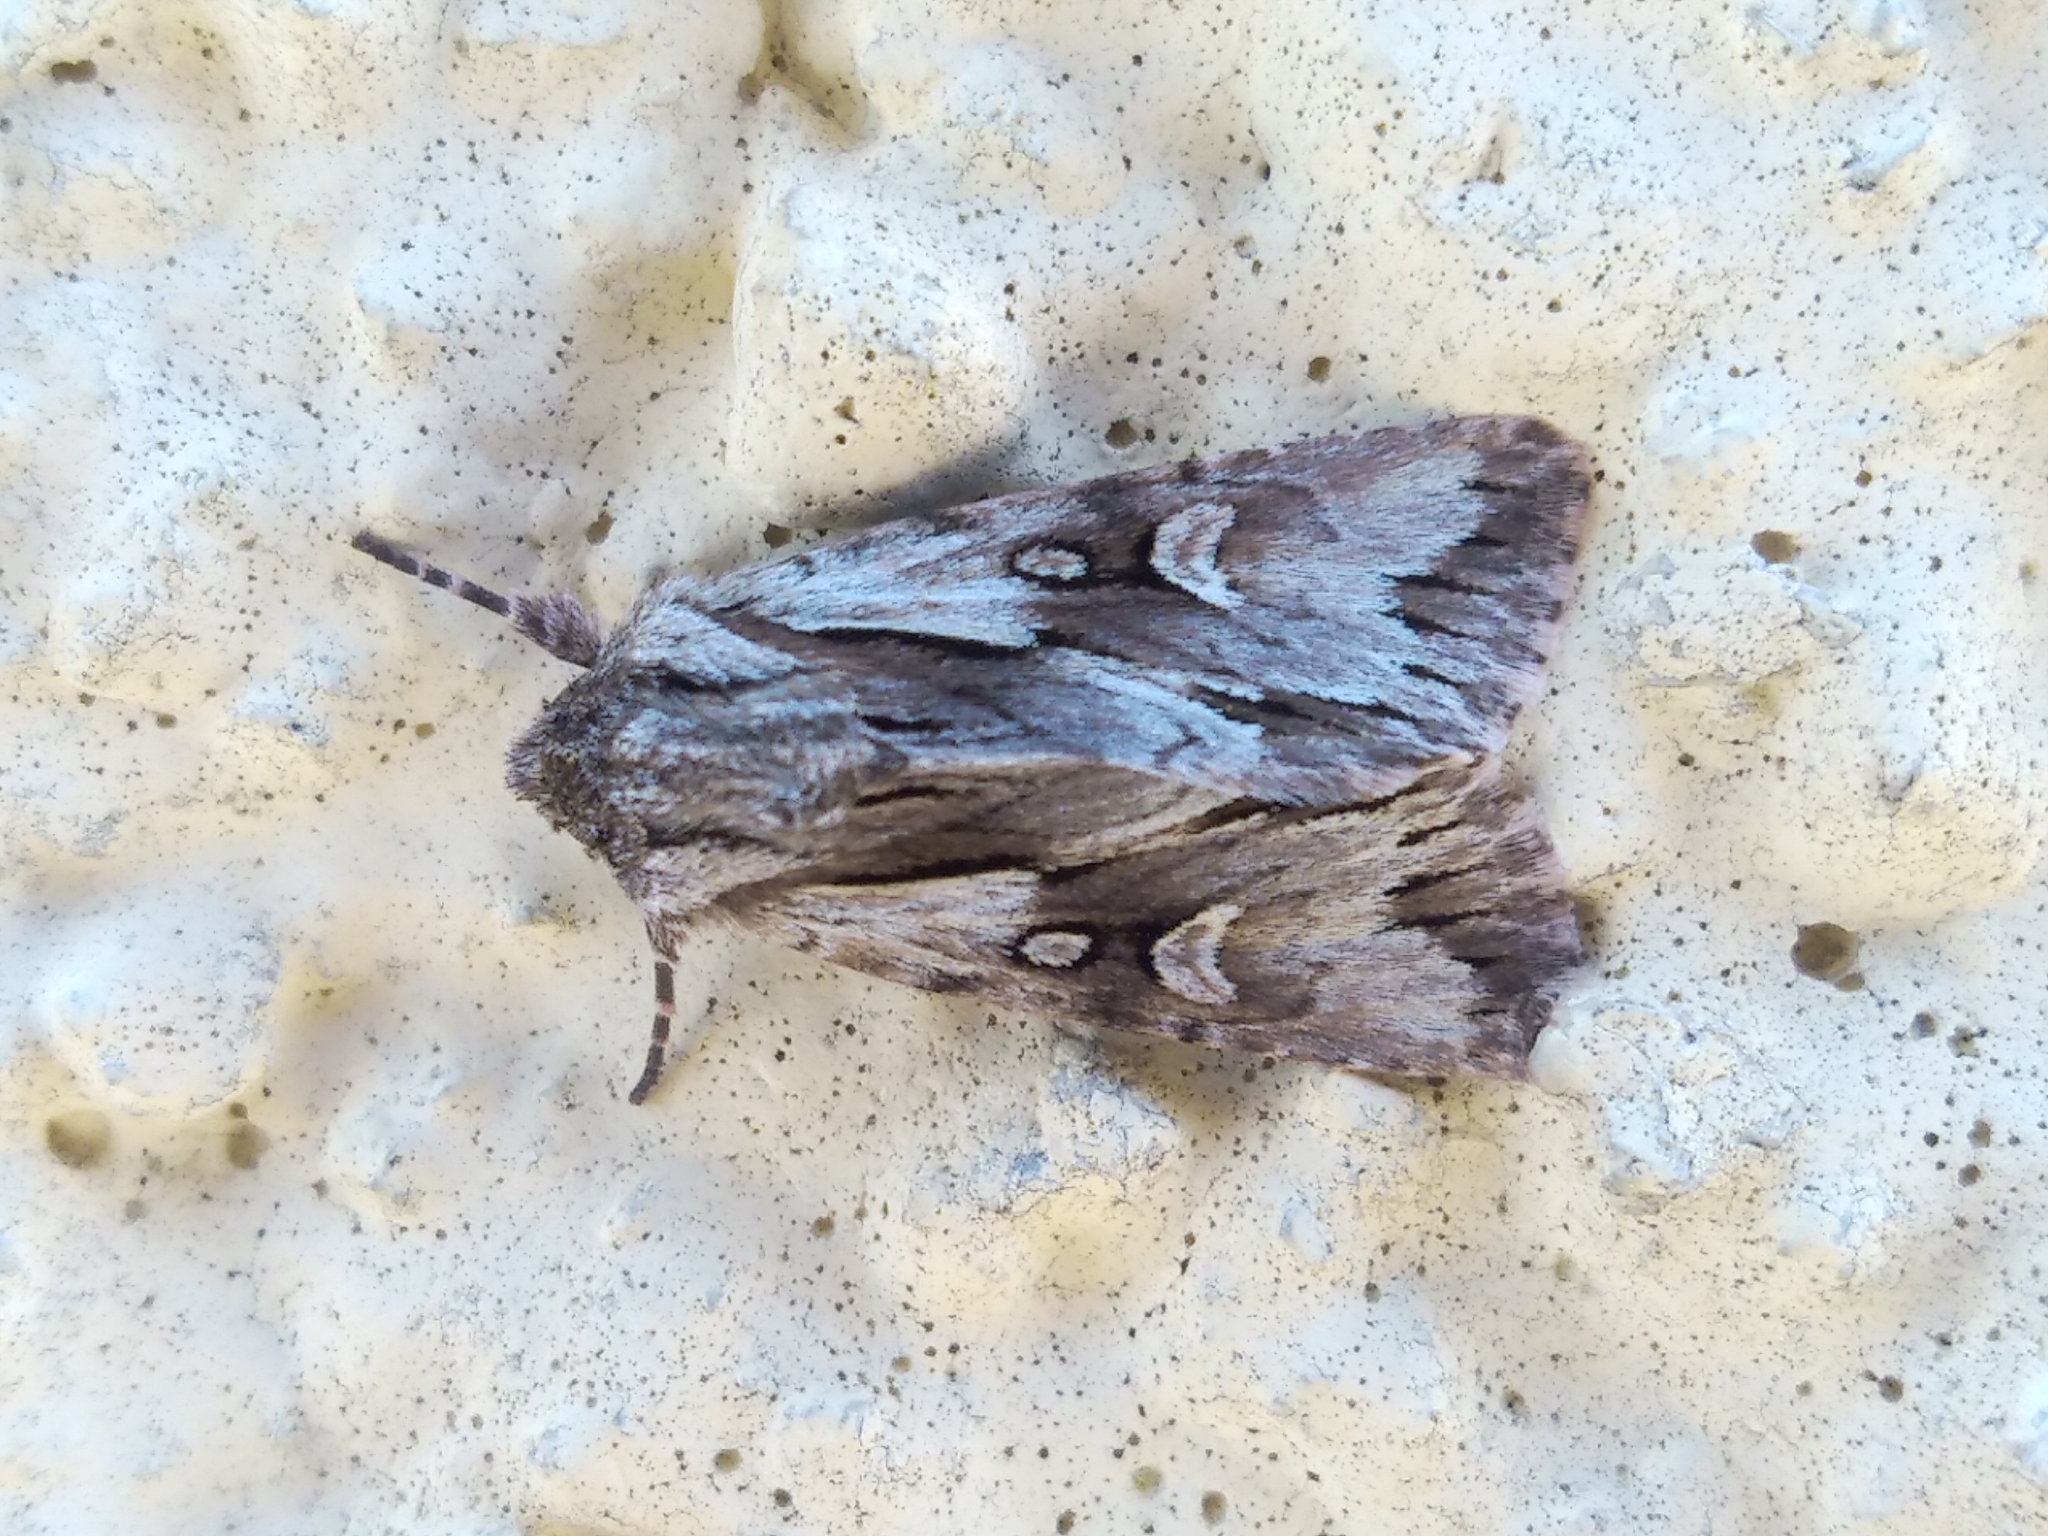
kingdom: Animalia
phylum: Arthropoda
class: Insecta
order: Lepidoptera
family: Noctuidae
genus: Chloantha
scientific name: Chloantha hyperici
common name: Pale-shouldered cloud
